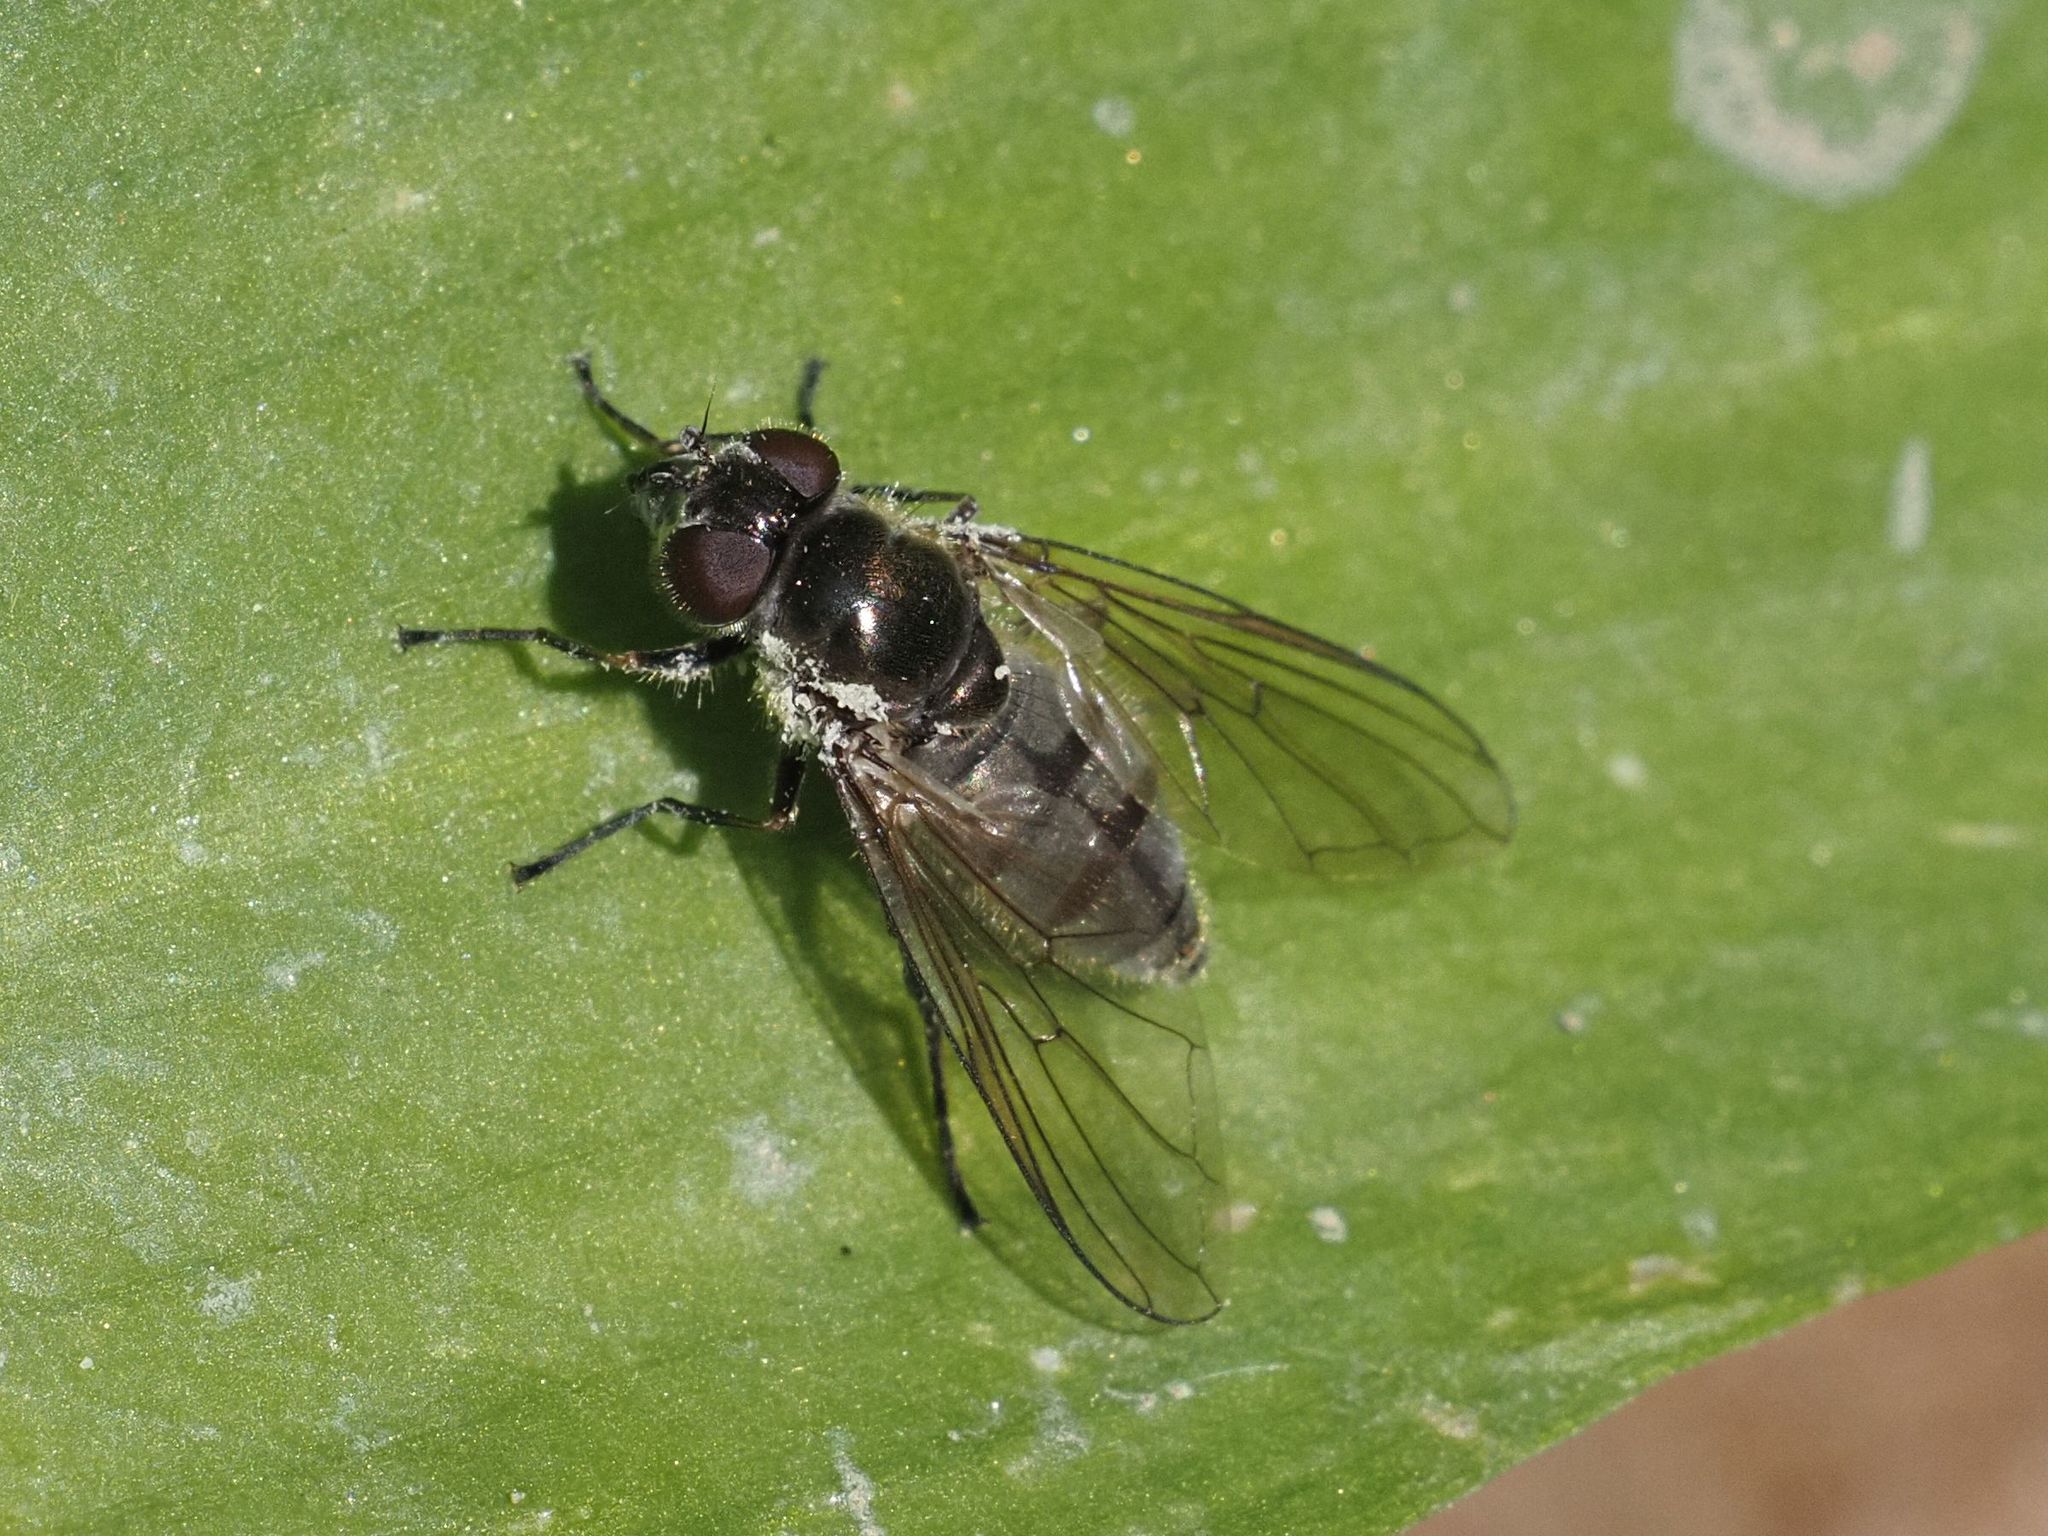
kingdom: Animalia
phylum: Arthropoda
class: Insecta
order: Diptera
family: Syrphidae
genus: Cheilosia
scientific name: Cheilosia fasciata
